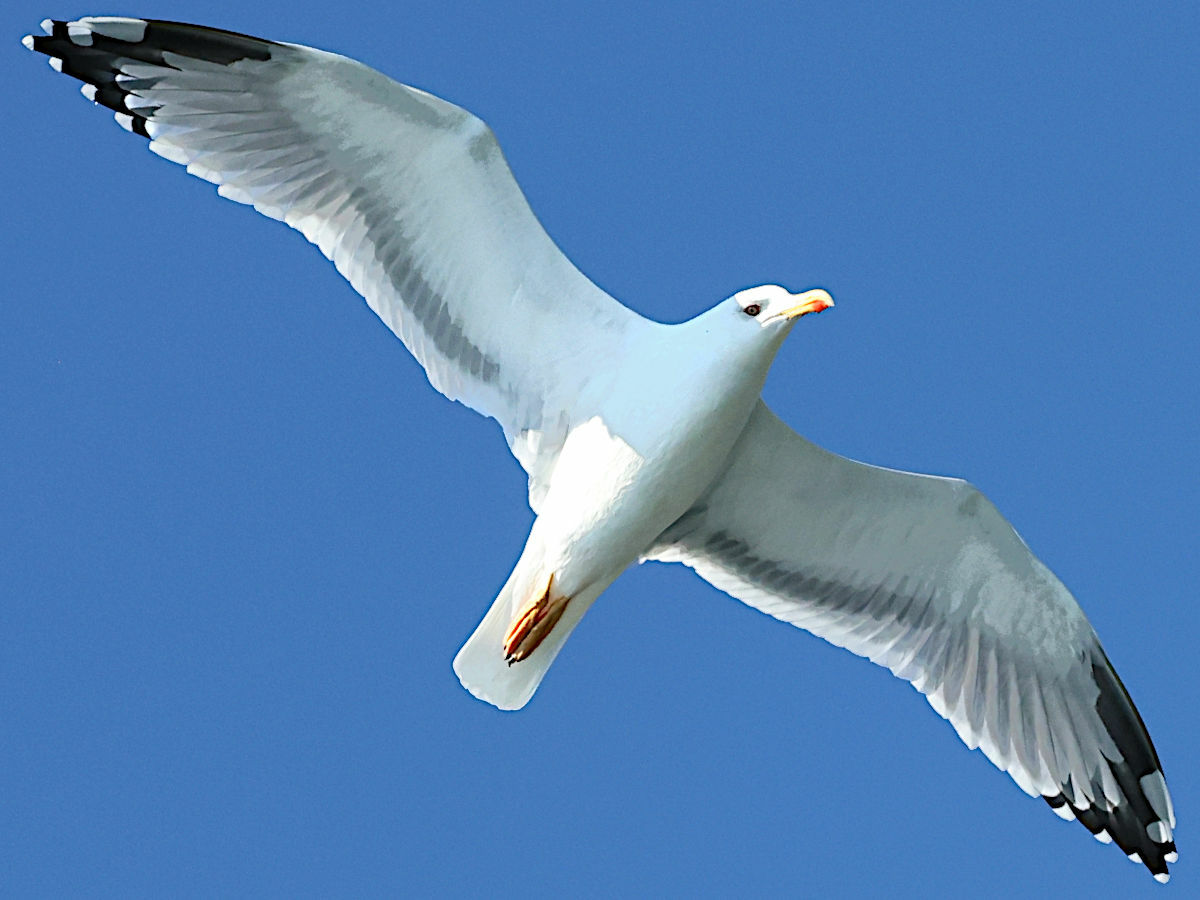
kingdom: Animalia
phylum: Chordata
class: Aves
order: Charadriiformes
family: Laridae
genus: Larus
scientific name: Larus michahellis
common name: Yellow-legged gull
